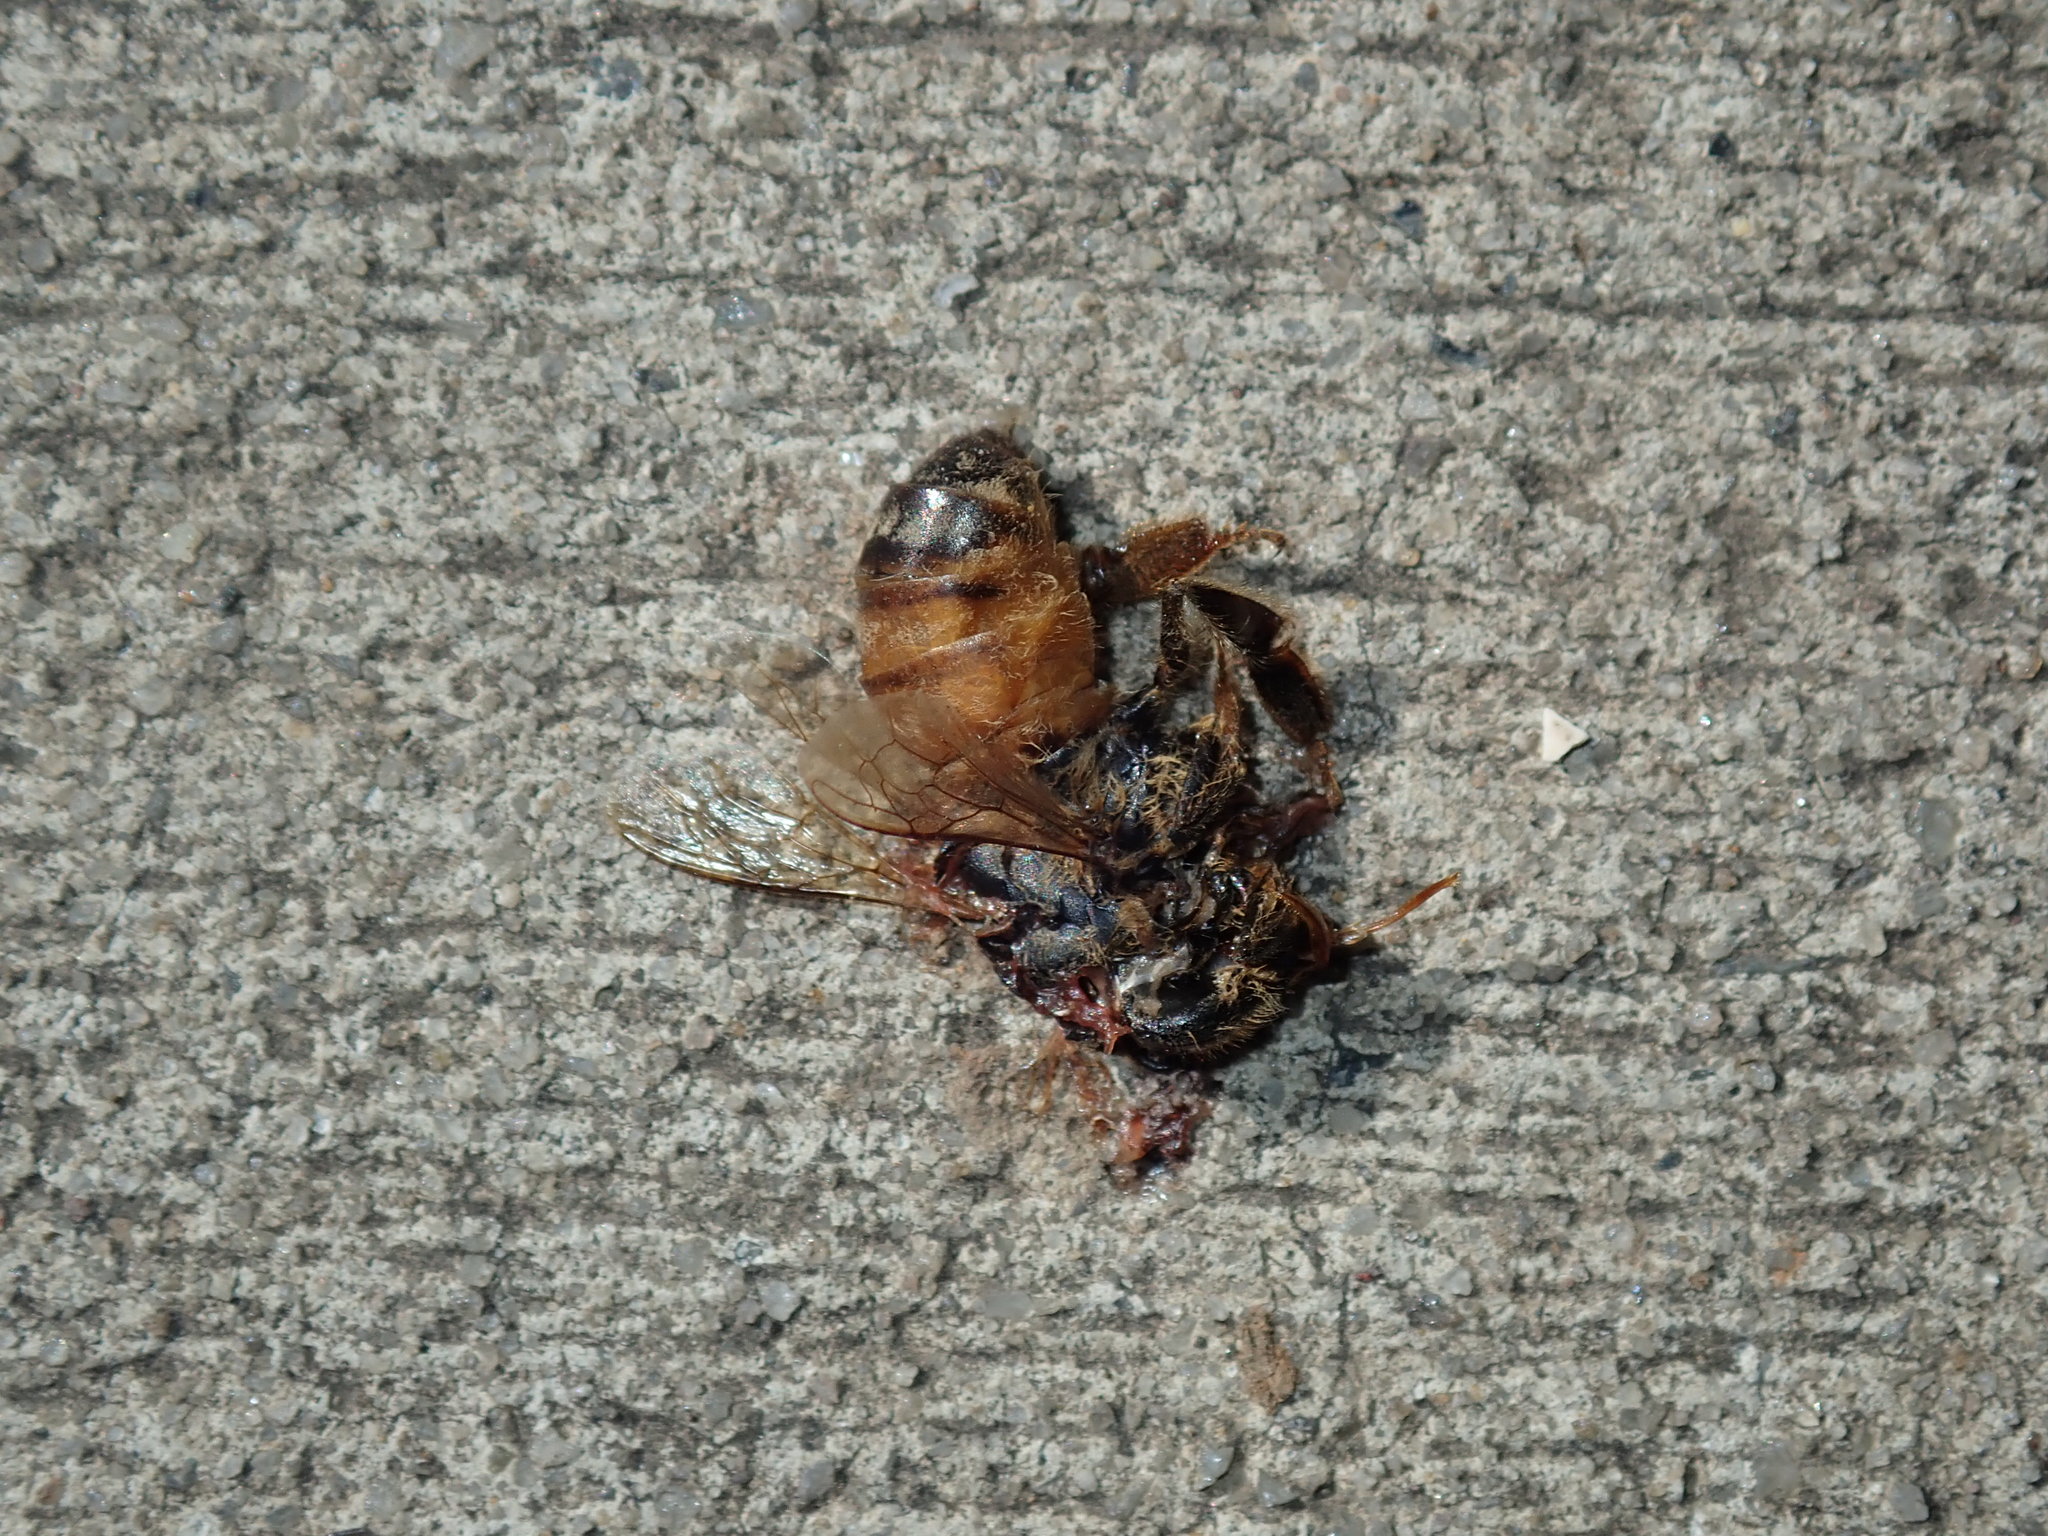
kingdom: Animalia
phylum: Arthropoda
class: Insecta
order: Hymenoptera
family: Apidae
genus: Apis
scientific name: Apis mellifera
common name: Honey bee
